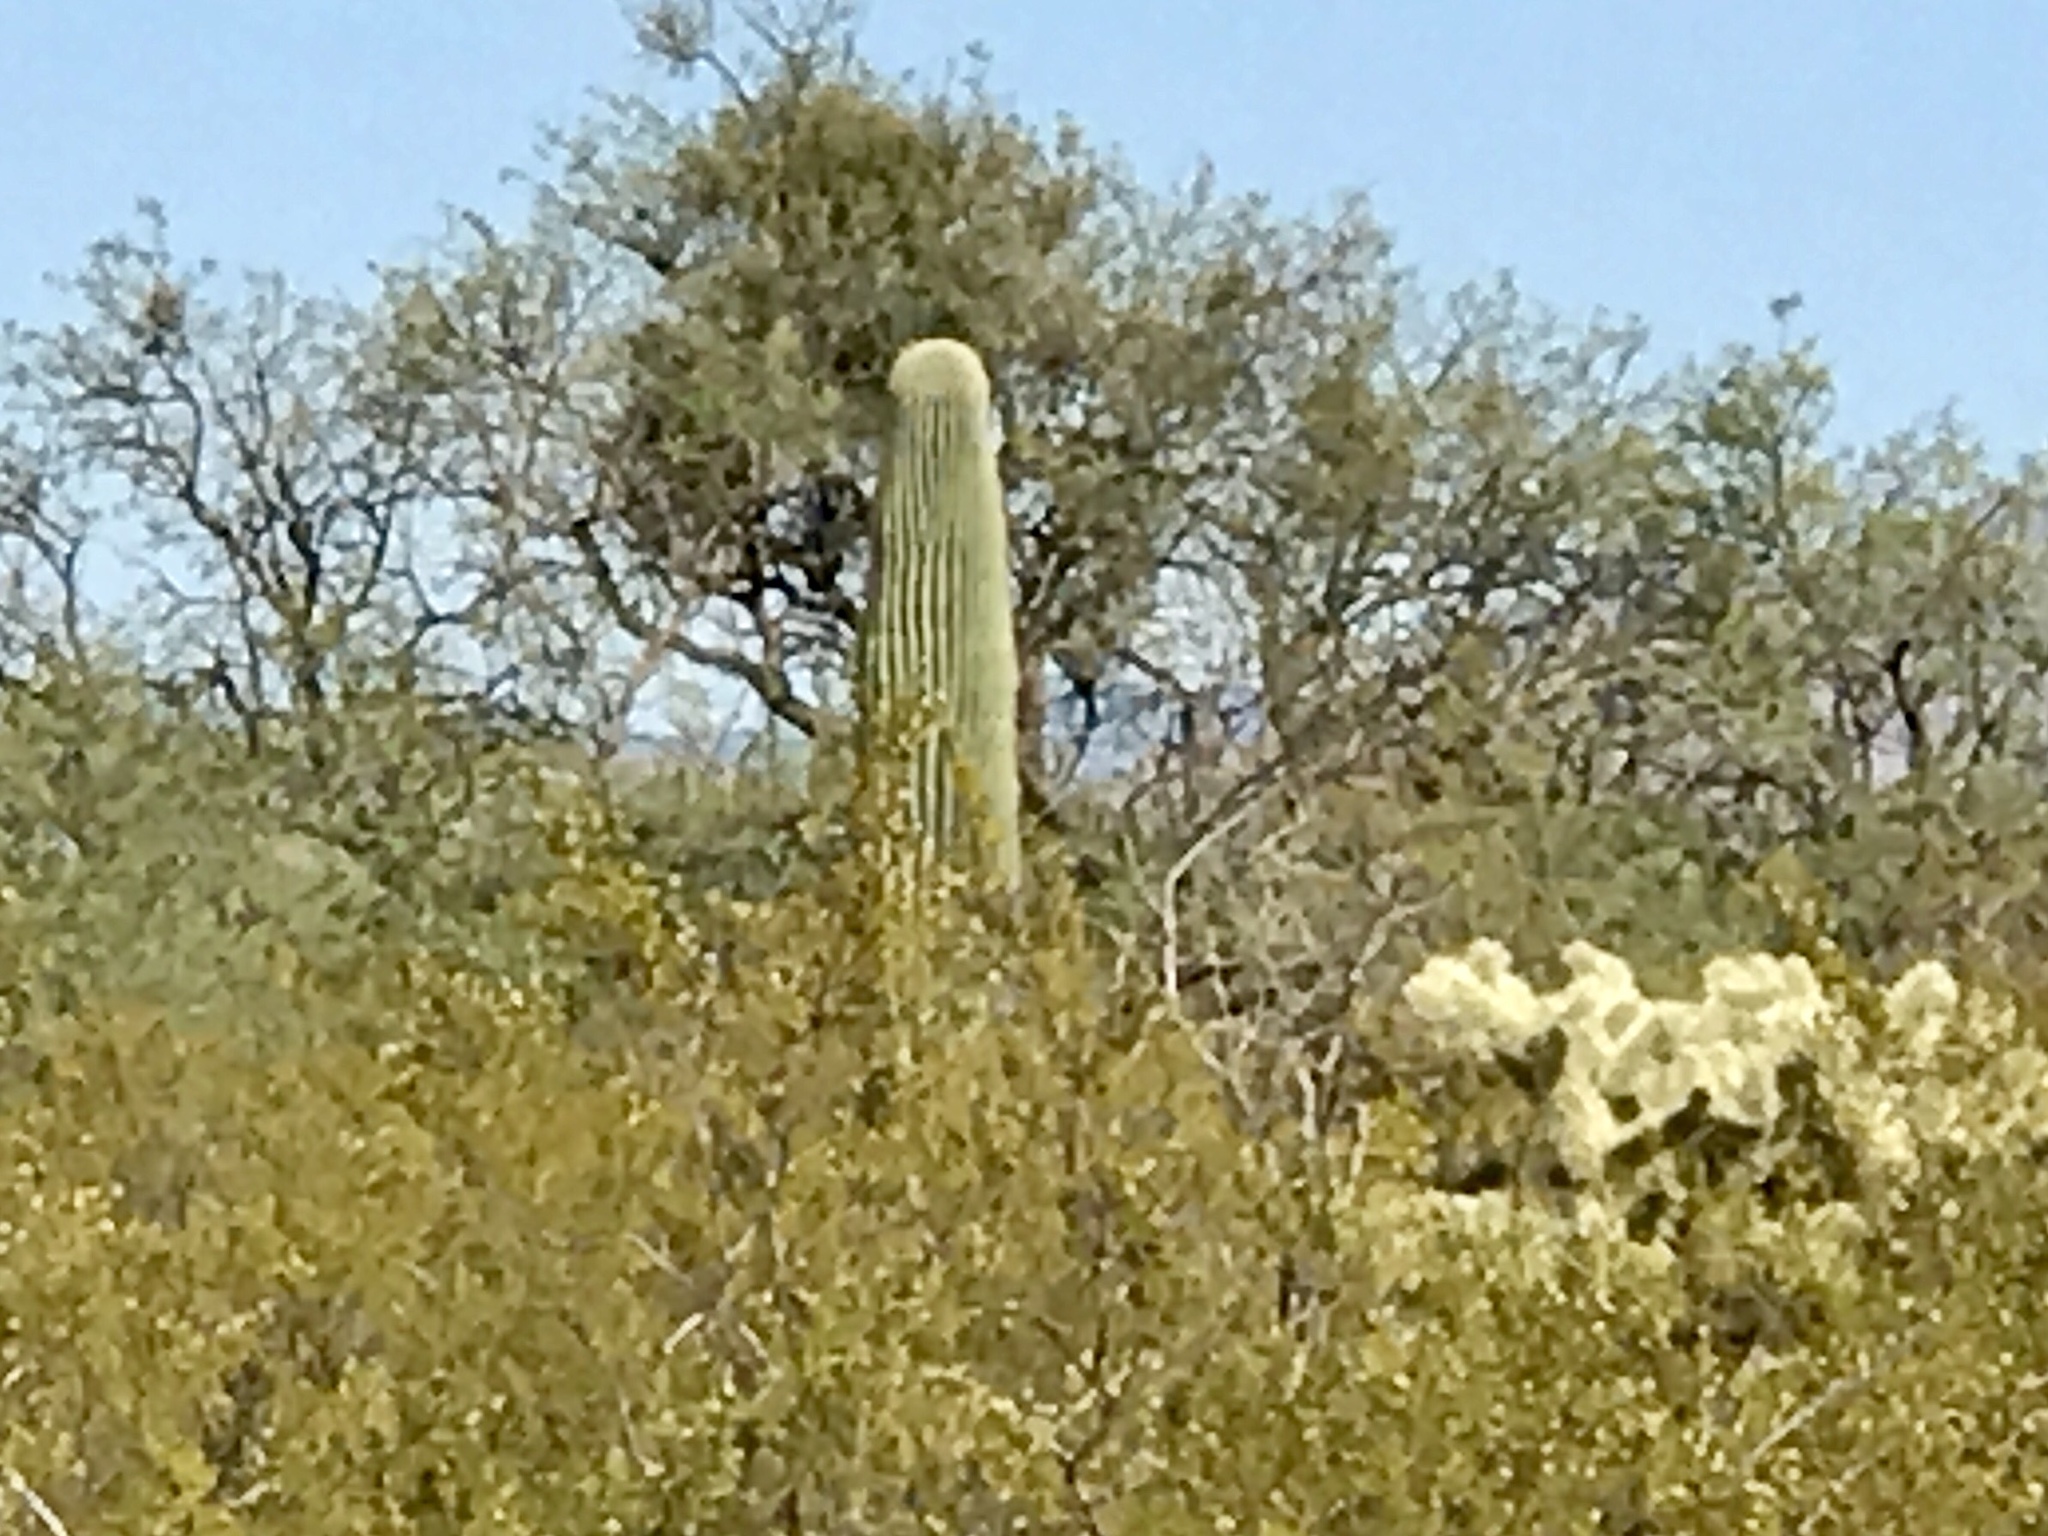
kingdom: Plantae
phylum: Tracheophyta
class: Magnoliopsida
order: Caryophyllales
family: Cactaceae
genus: Carnegiea
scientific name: Carnegiea gigantea
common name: Saguaro
